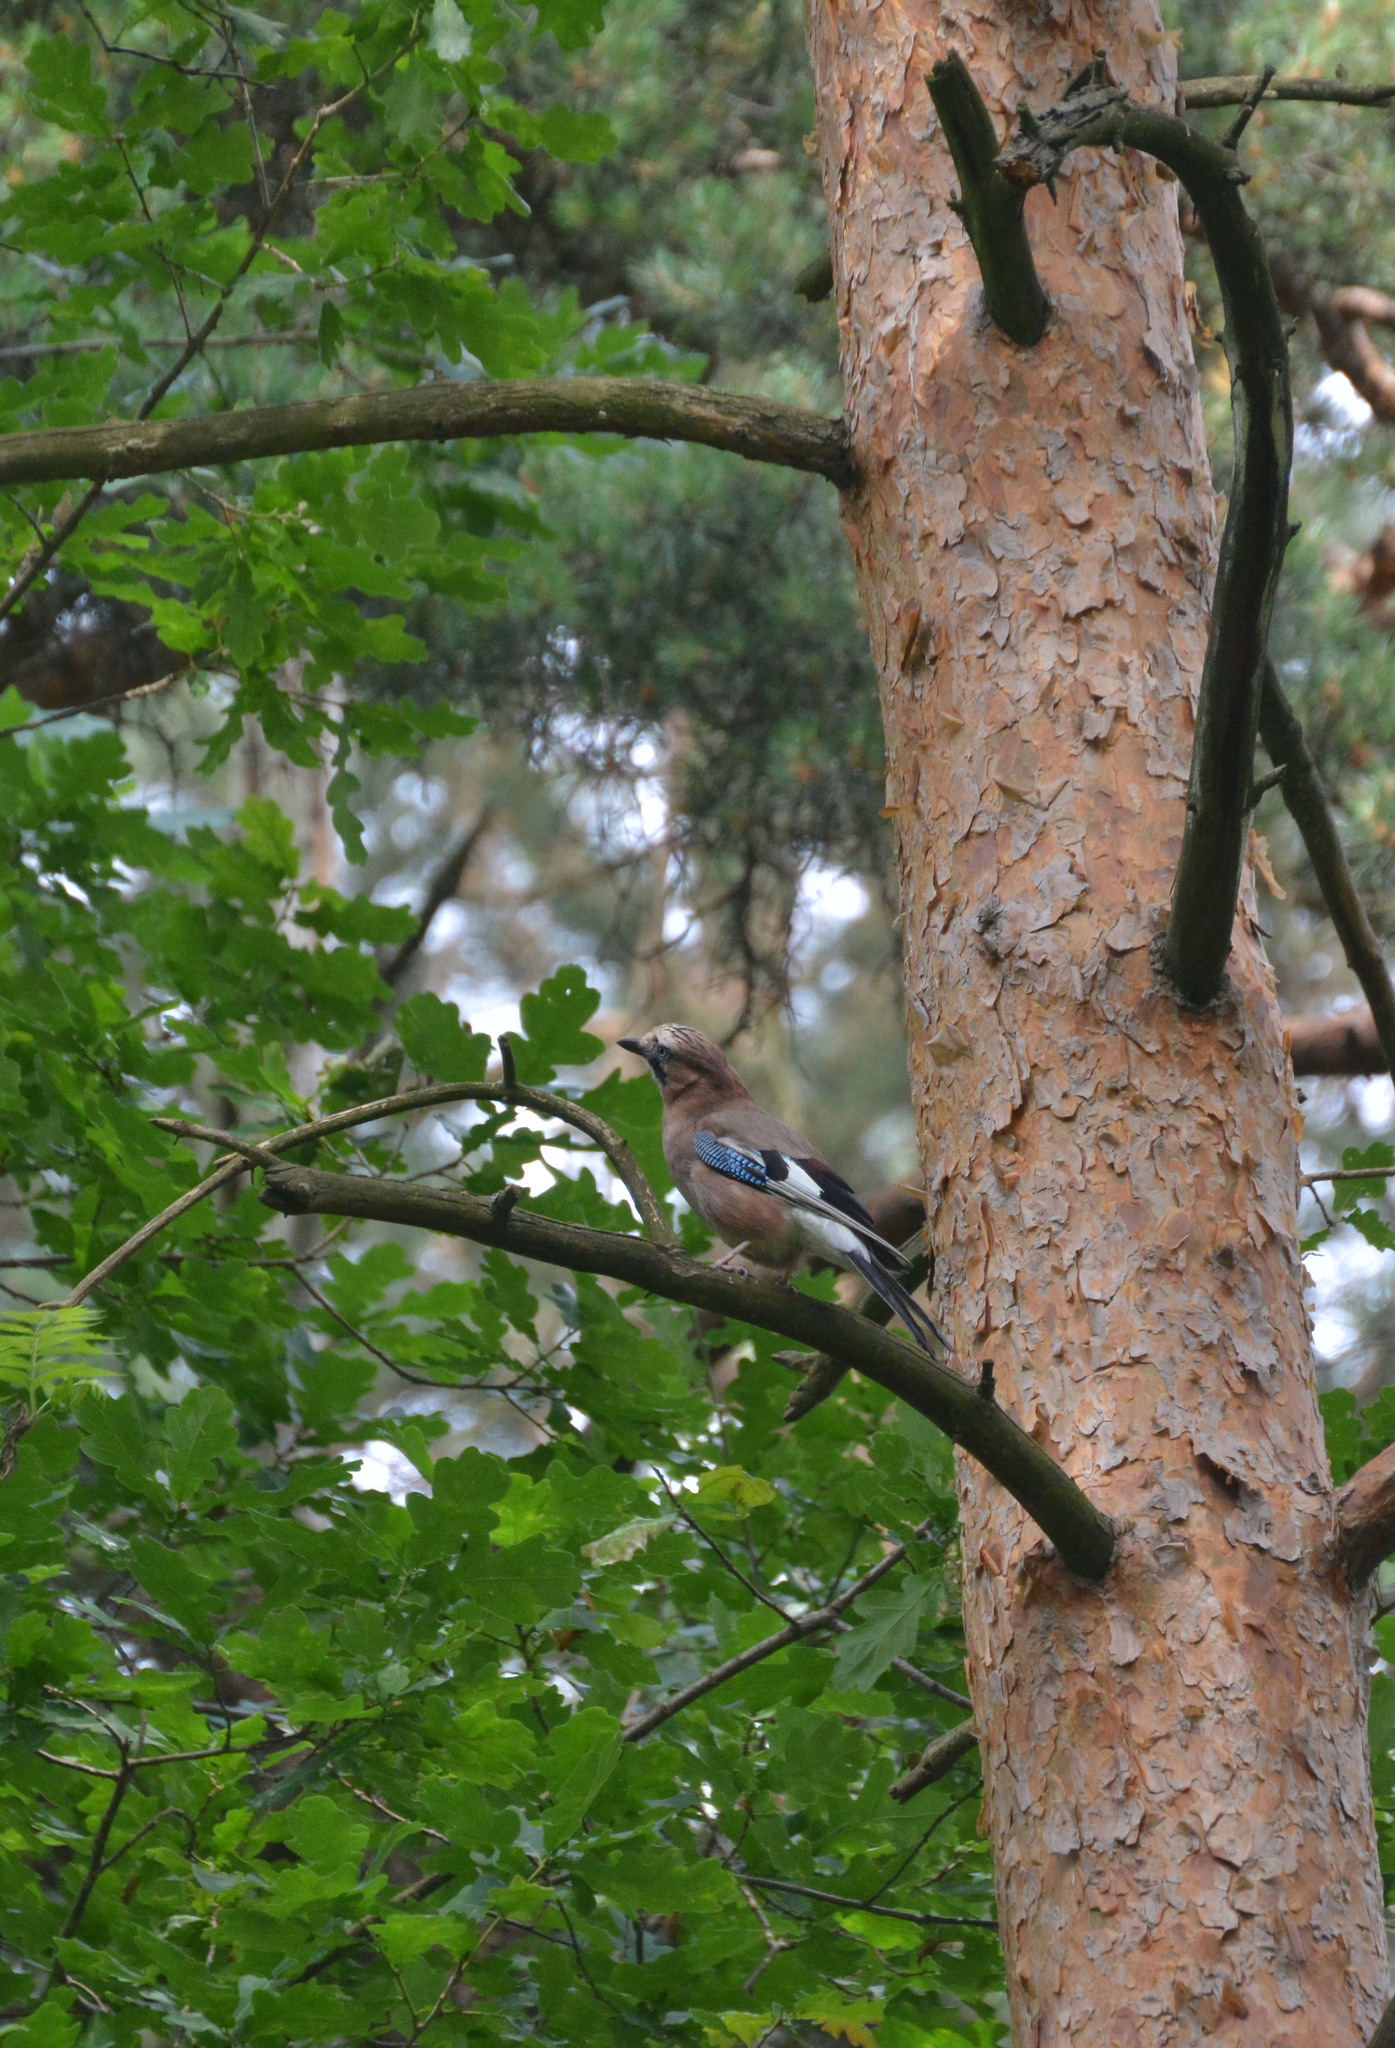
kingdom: Animalia
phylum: Chordata
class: Aves
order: Passeriformes
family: Corvidae
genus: Garrulus
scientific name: Garrulus glandarius
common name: Eurasian jay
